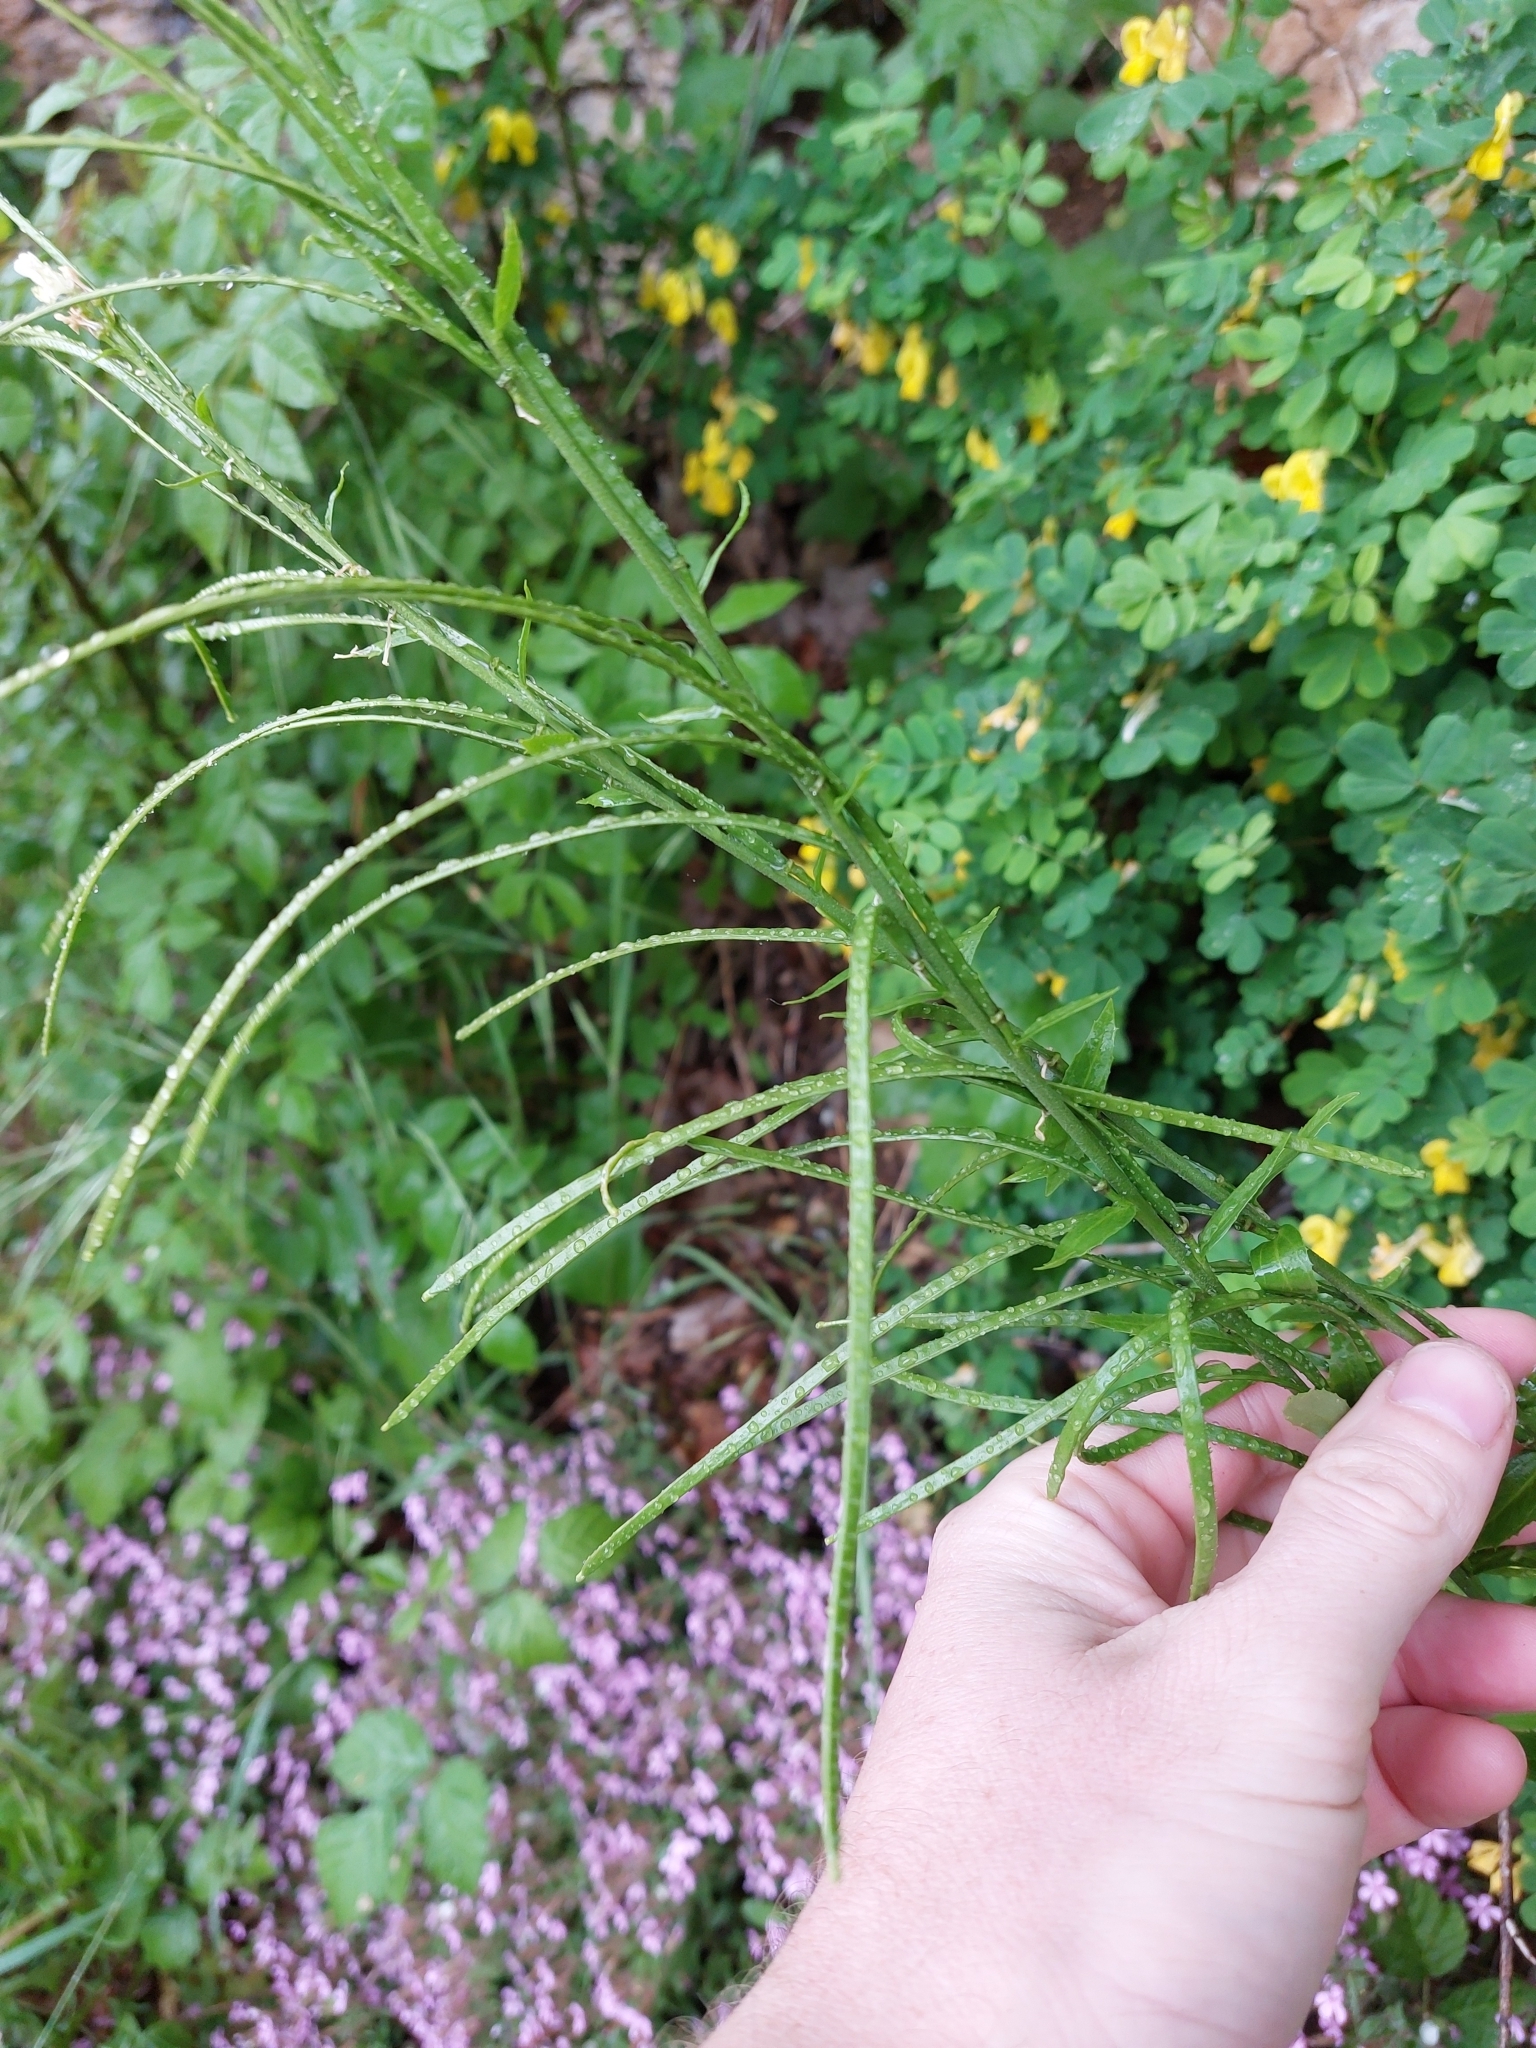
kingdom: Plantae
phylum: Tracheophyta
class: Magnoliopsida
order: Brassicales
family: Brassicaceae
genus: Pseudoturritis
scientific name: Pseudoturritis turrita
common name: Tower cress
